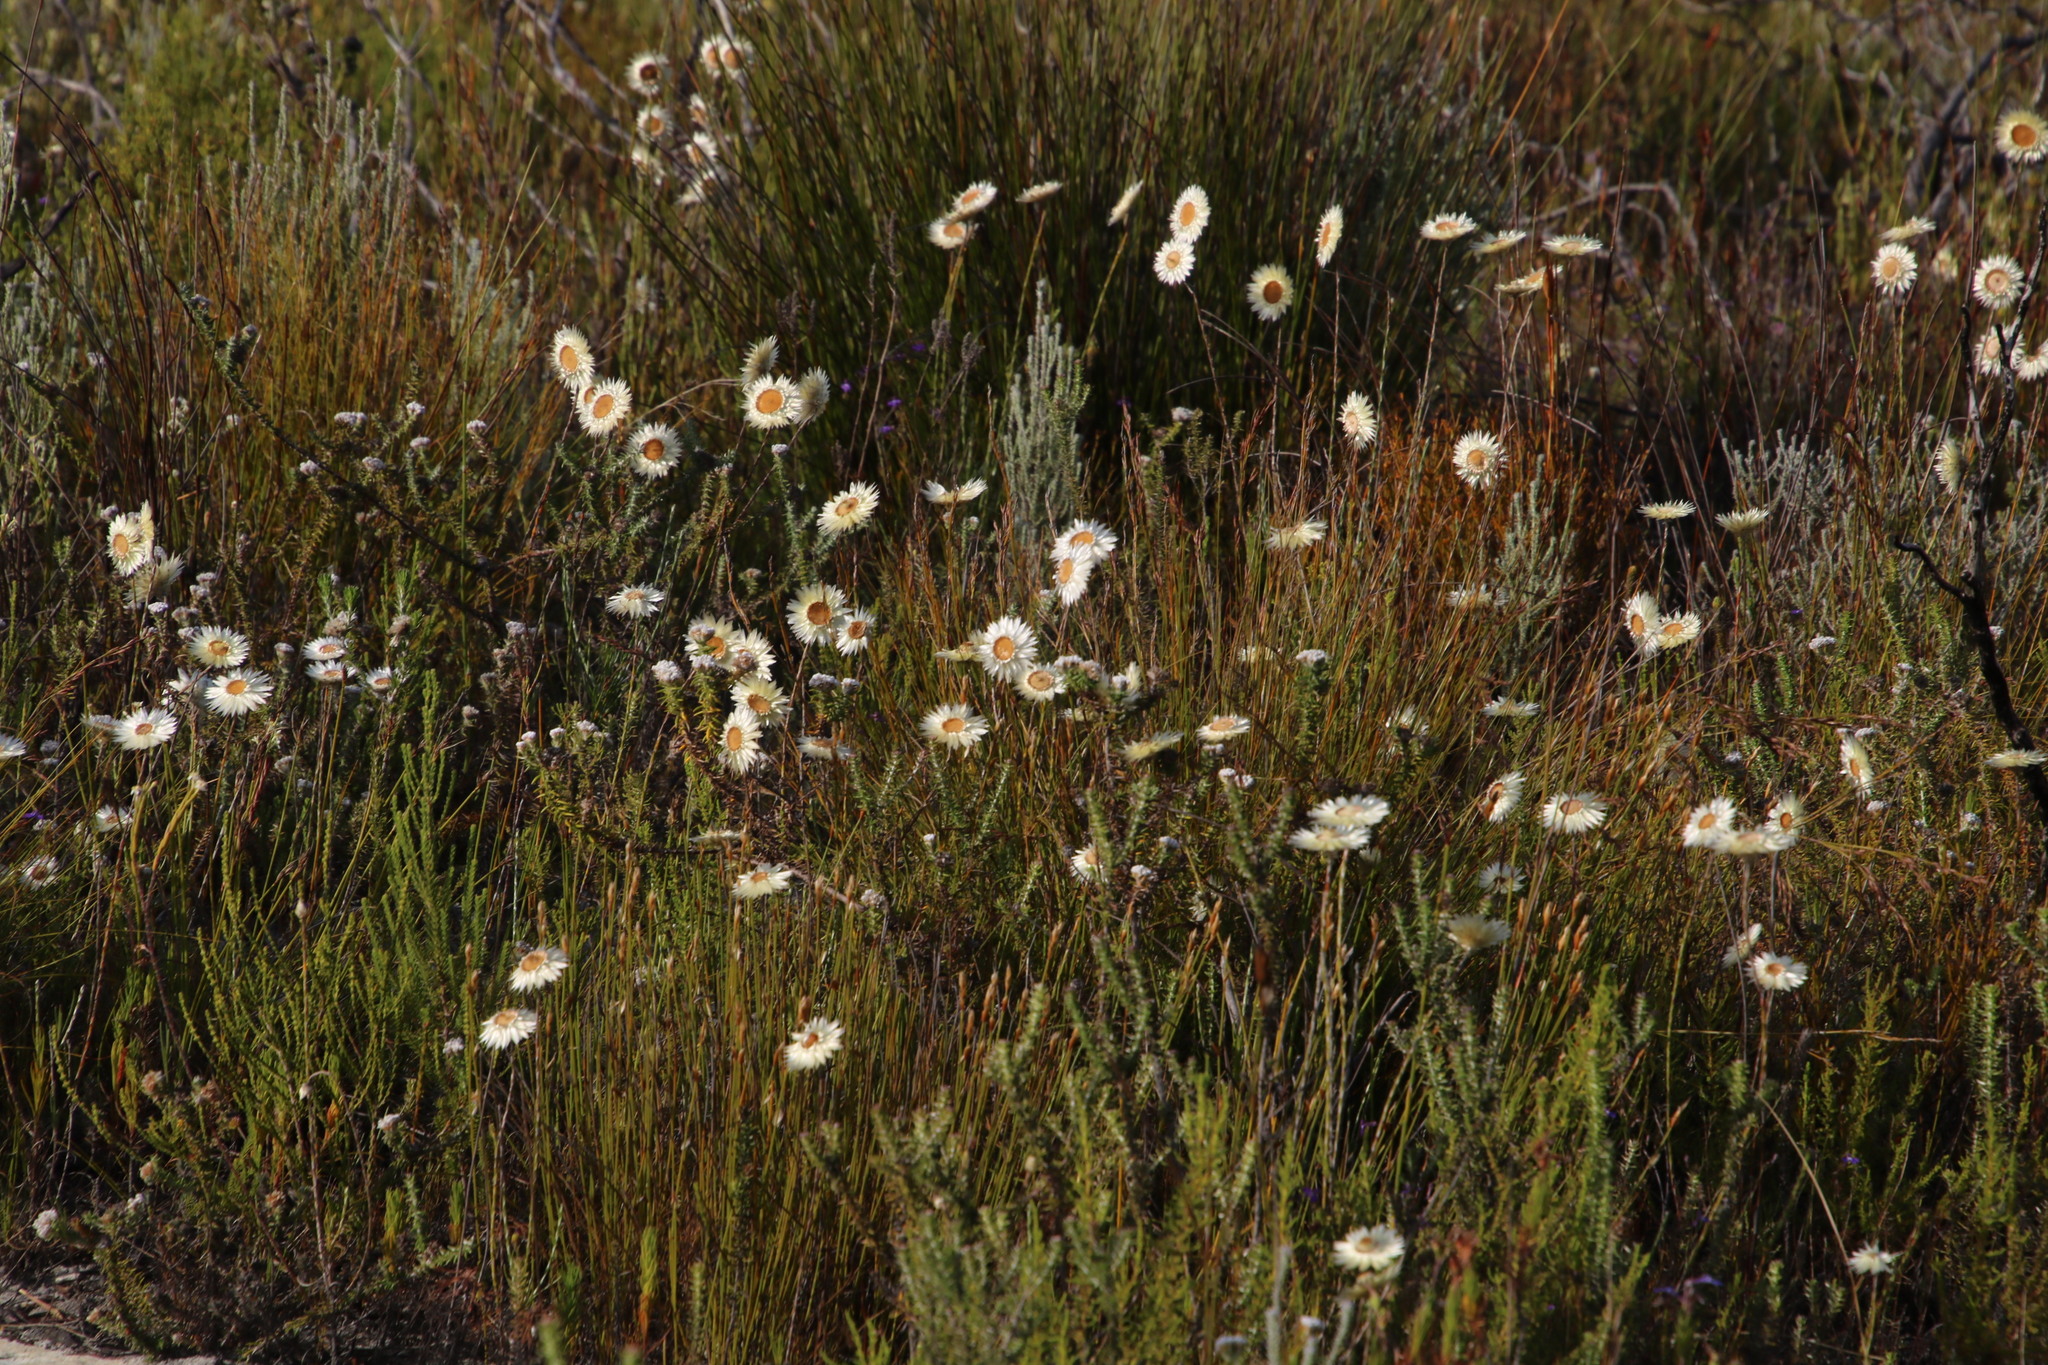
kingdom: Plantae
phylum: Tracheophyta
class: Magnoliopsida
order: Asterales
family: Asteraceae
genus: Edmondia
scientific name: Edmondia sesamoides
